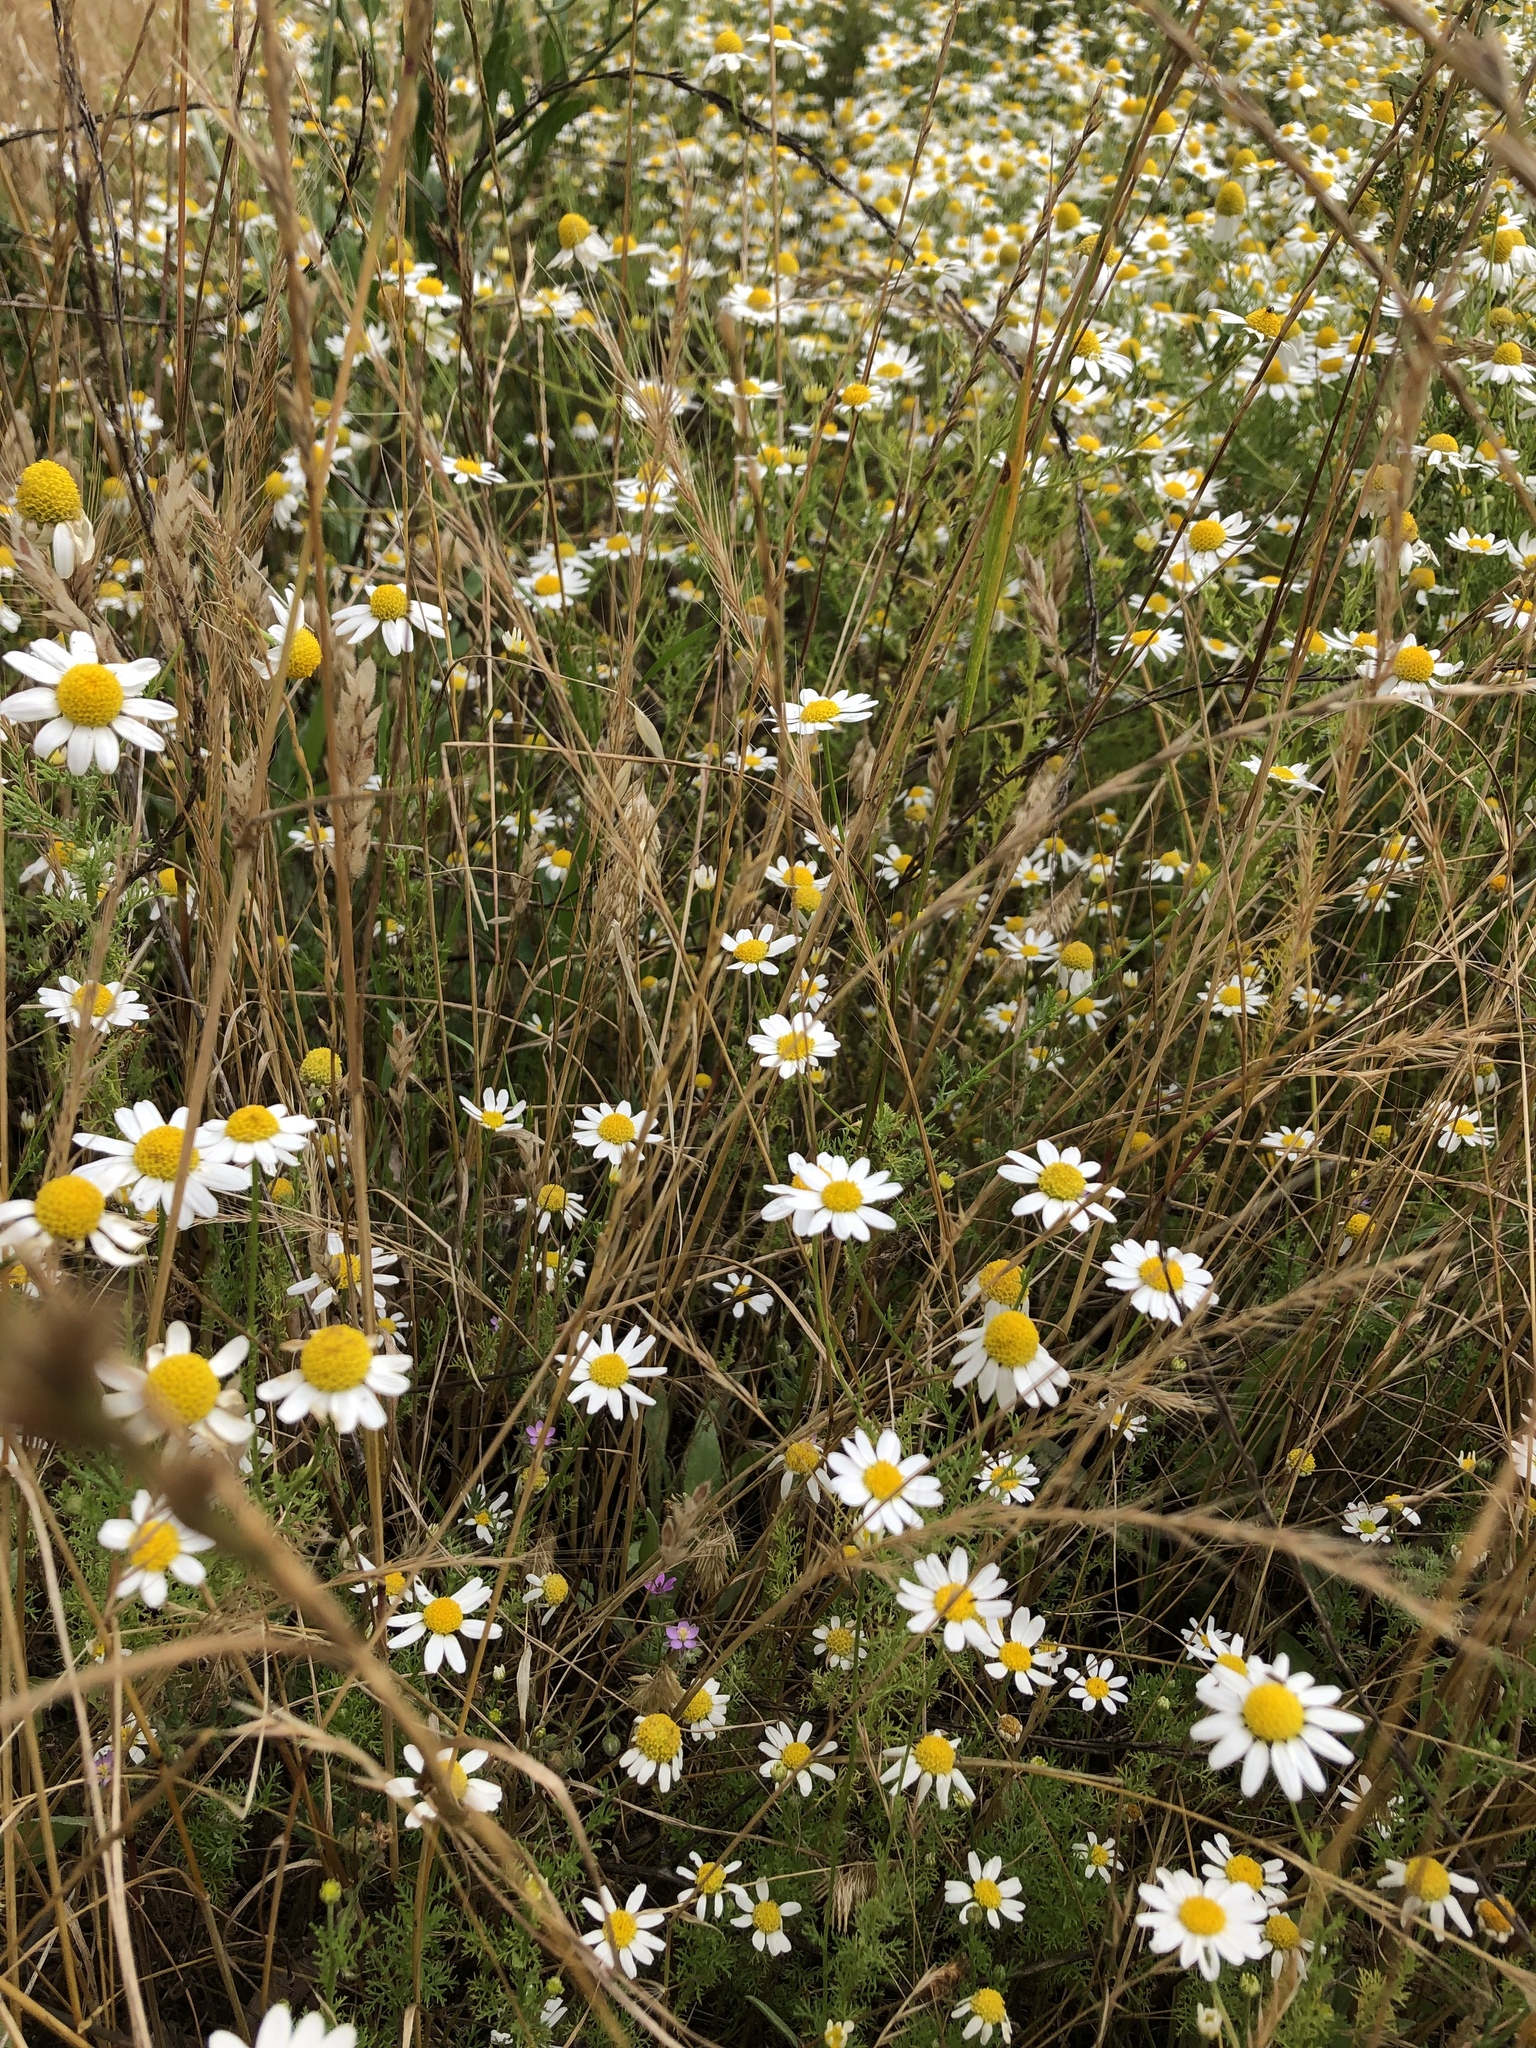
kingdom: Plantae
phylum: Tracheophyta
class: Magnoliopsida
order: Asterales
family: Asteraceae
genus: Anthemis
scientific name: Anthemis cotula
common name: Stinking chamomile
